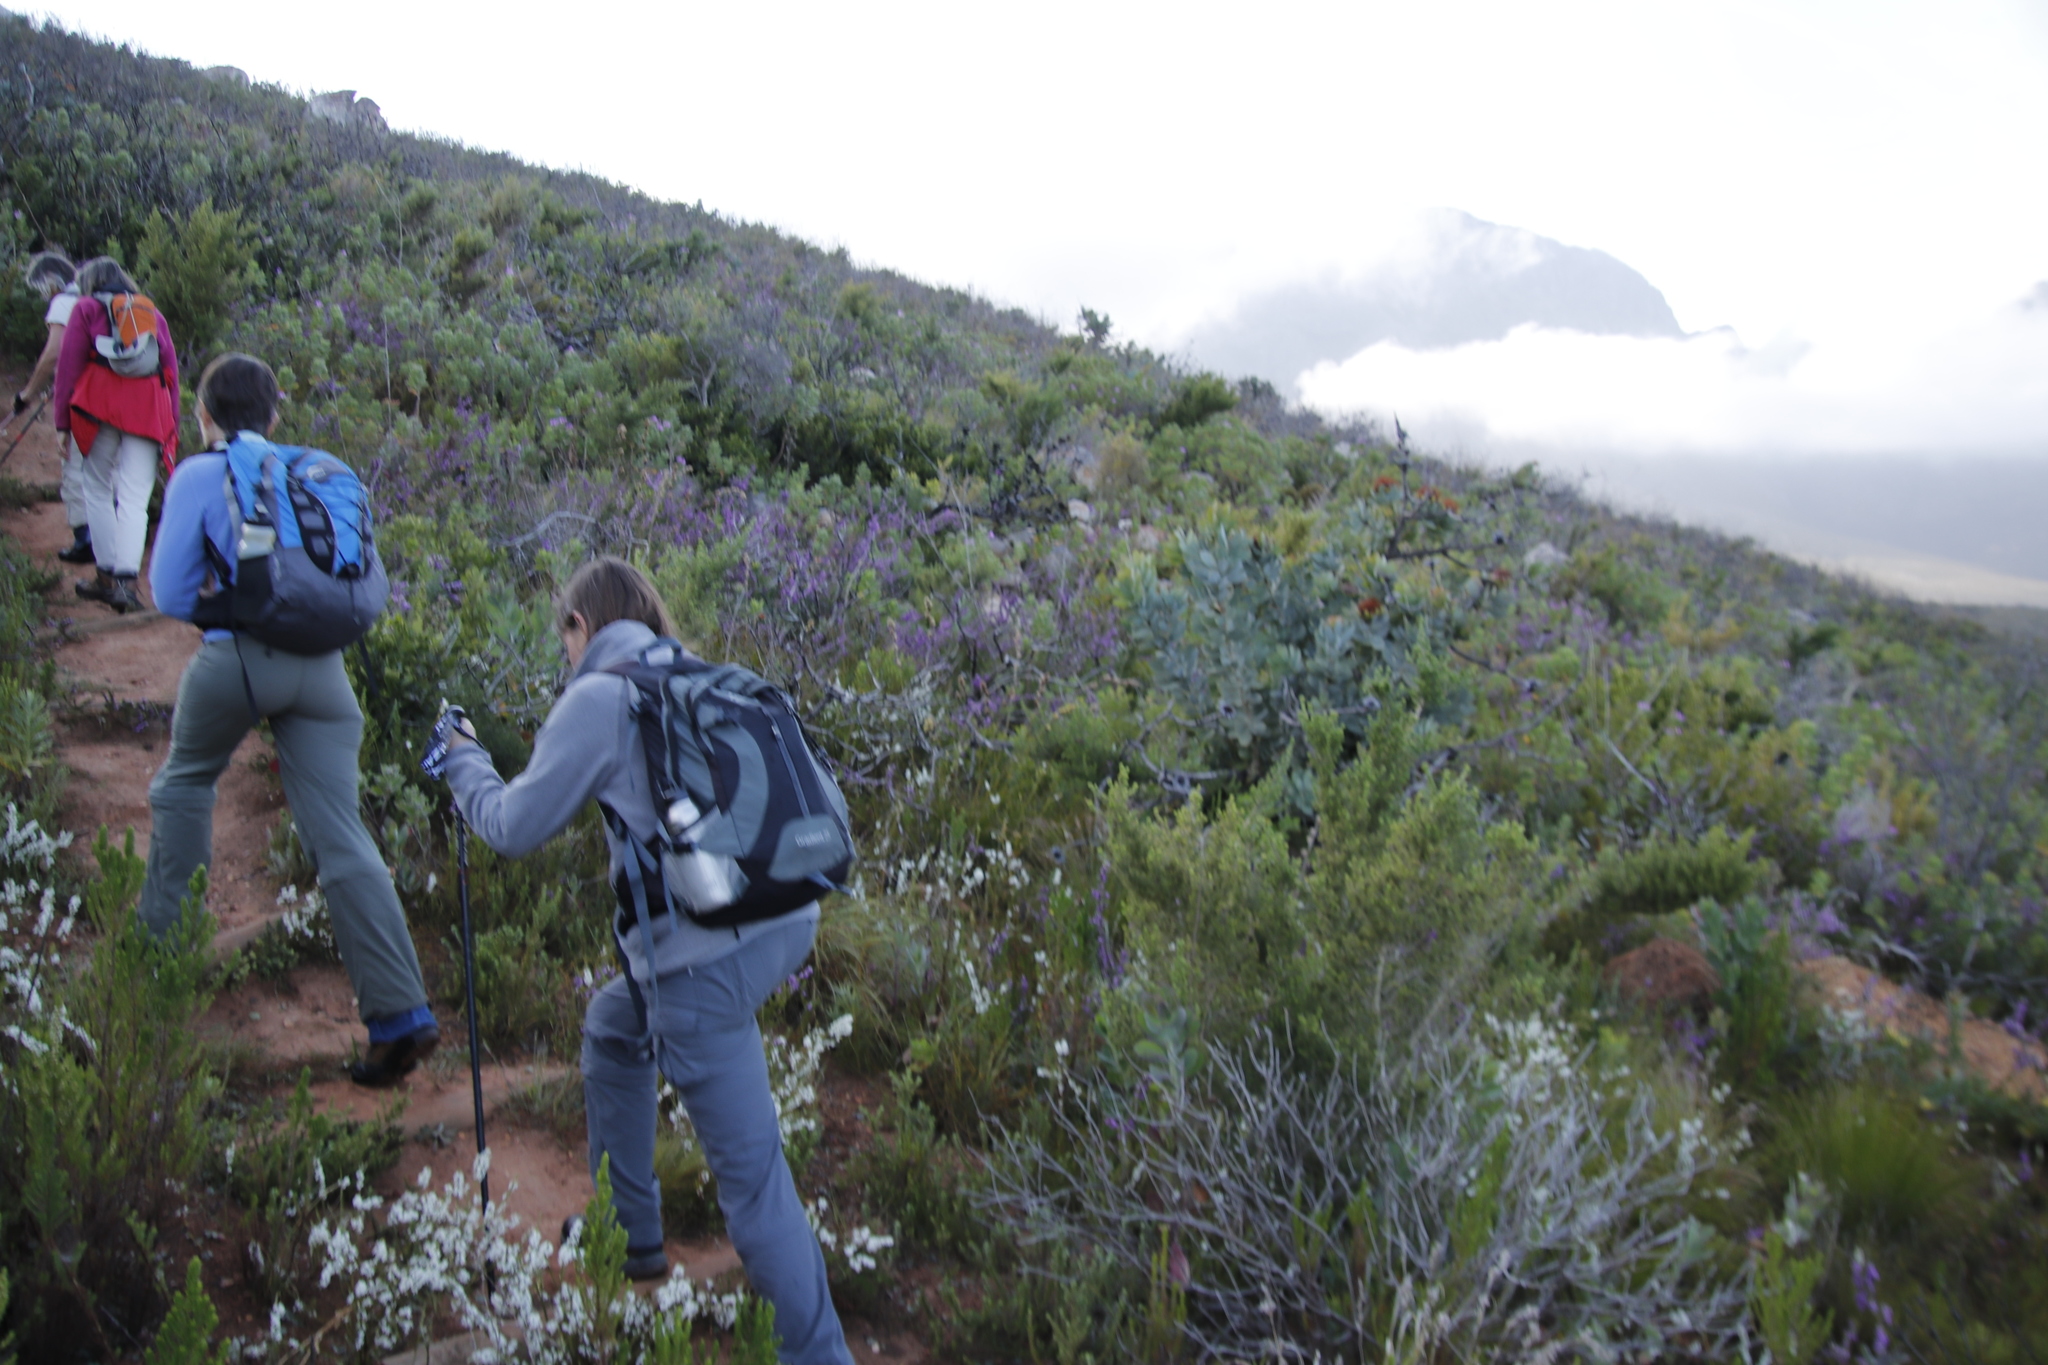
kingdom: Plantae
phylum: Tracheophyta
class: Magnoliopsida
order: Proteales
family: Proteaceae
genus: Protea
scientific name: Protea nitida
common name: Tree protea
